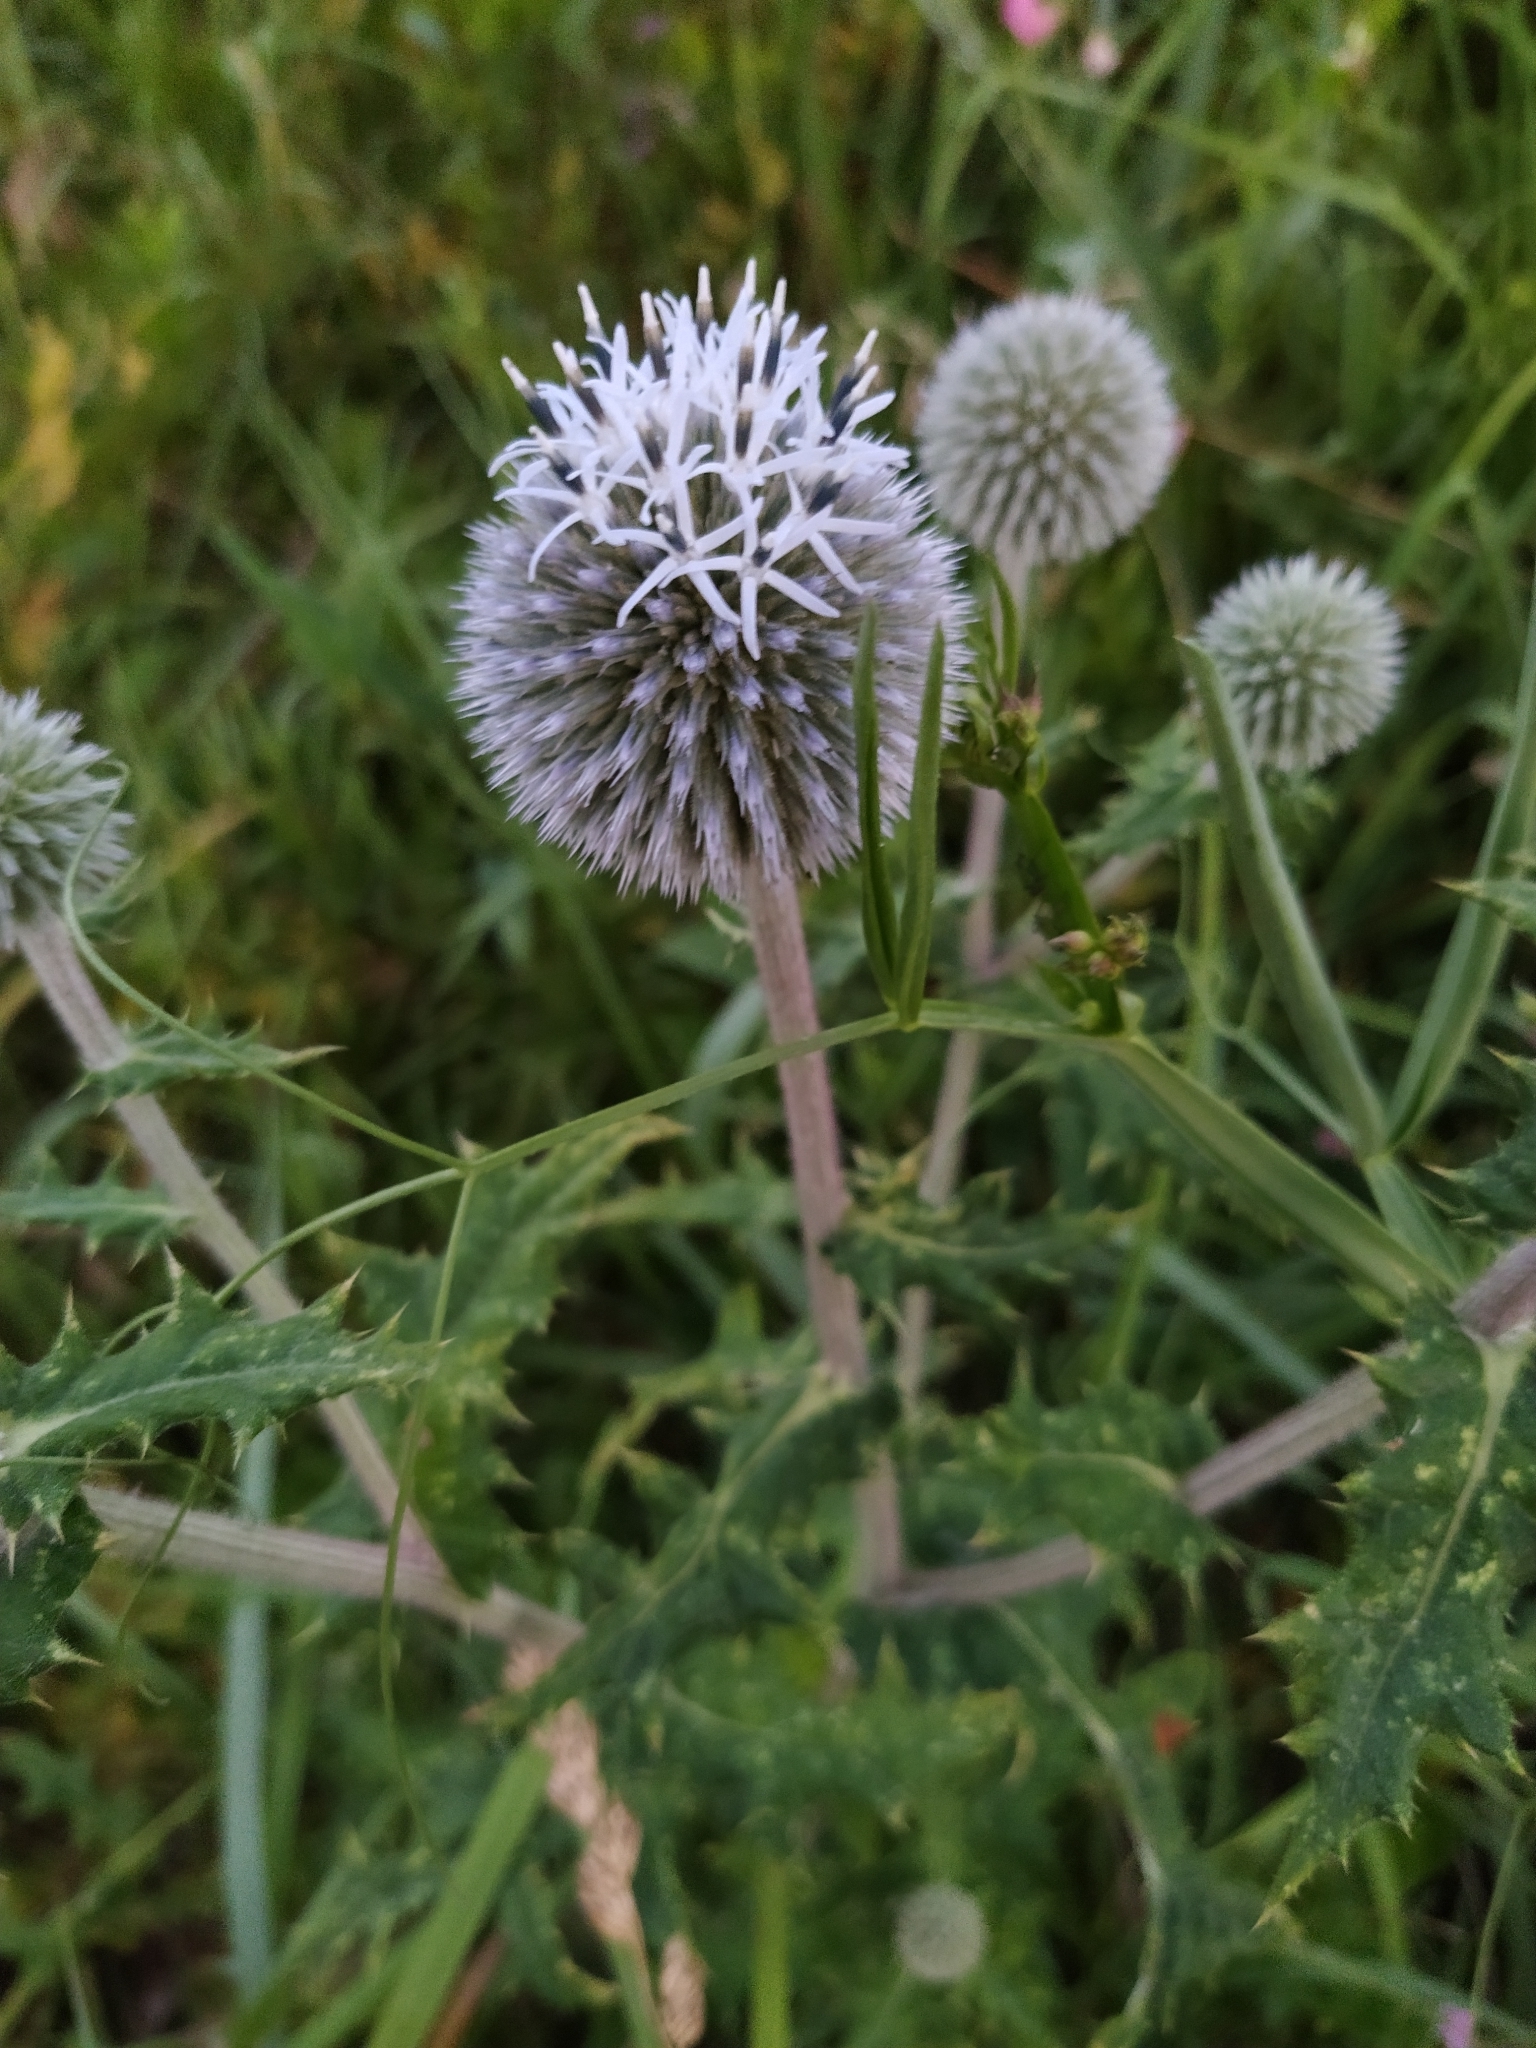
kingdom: Plantae
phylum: Tracheophyta
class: Magnoliopsida
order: Asterales
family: Asteraceae
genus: Echinops
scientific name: Echinops sphaerocephalus
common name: Glandular globe-thistle
